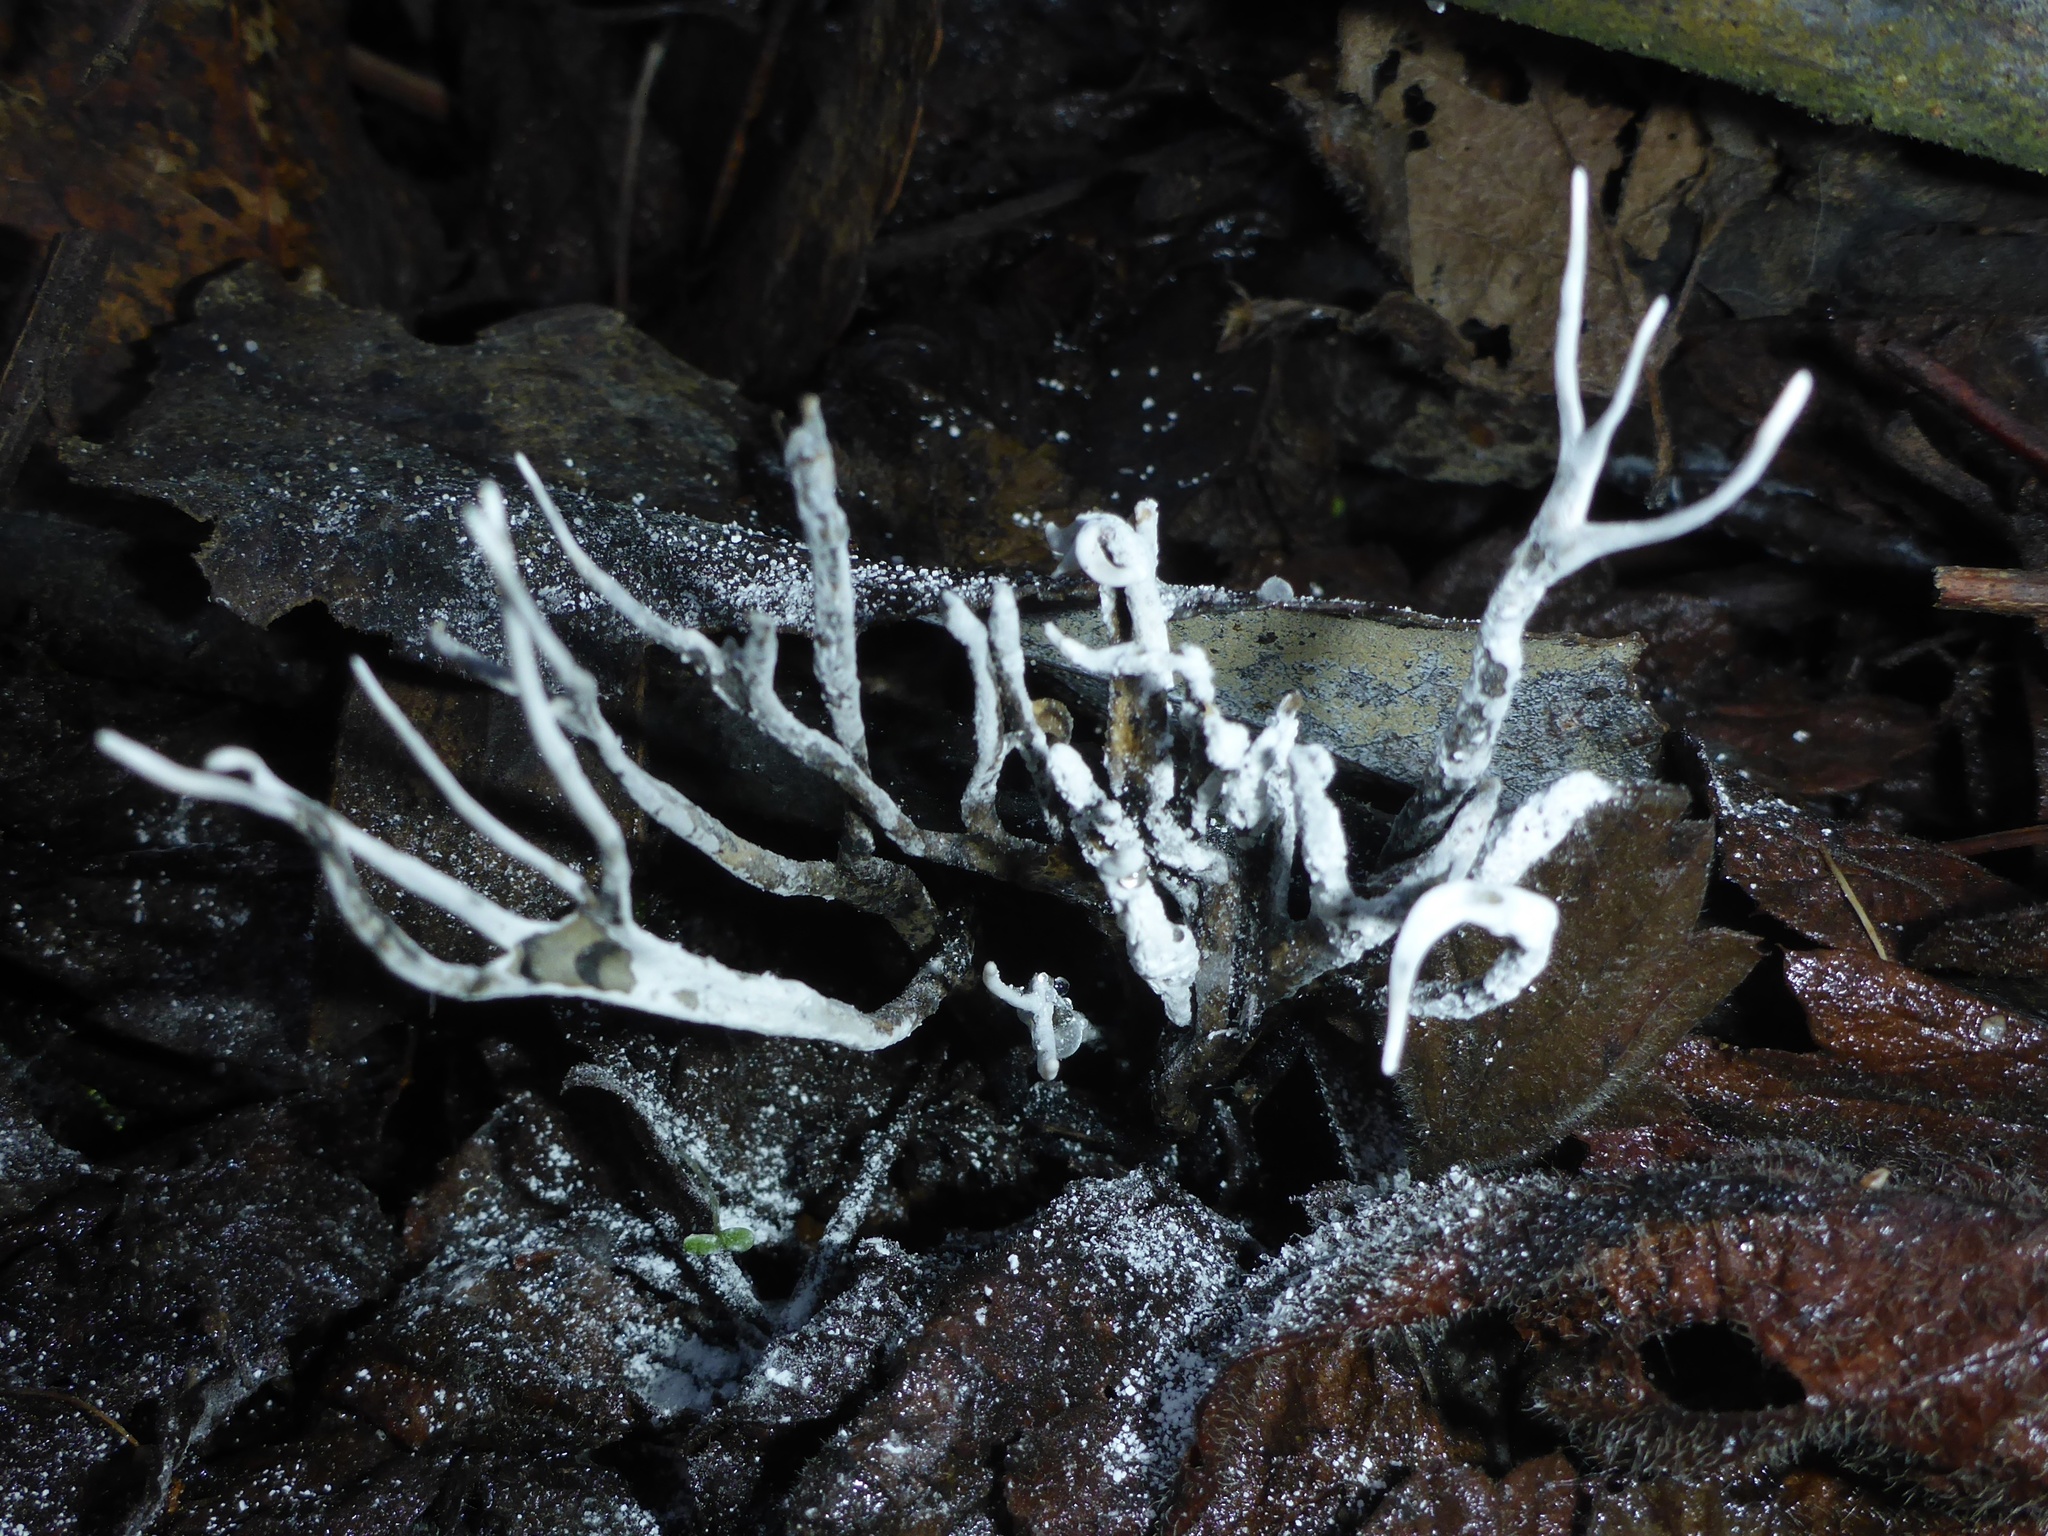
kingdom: Fungi
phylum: Ascomycota
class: Sordariomycetes
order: Xylariales
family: Xylariaceae
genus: Xylaria
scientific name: Xylaria hypoxylon
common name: Candle-snuff fungus
